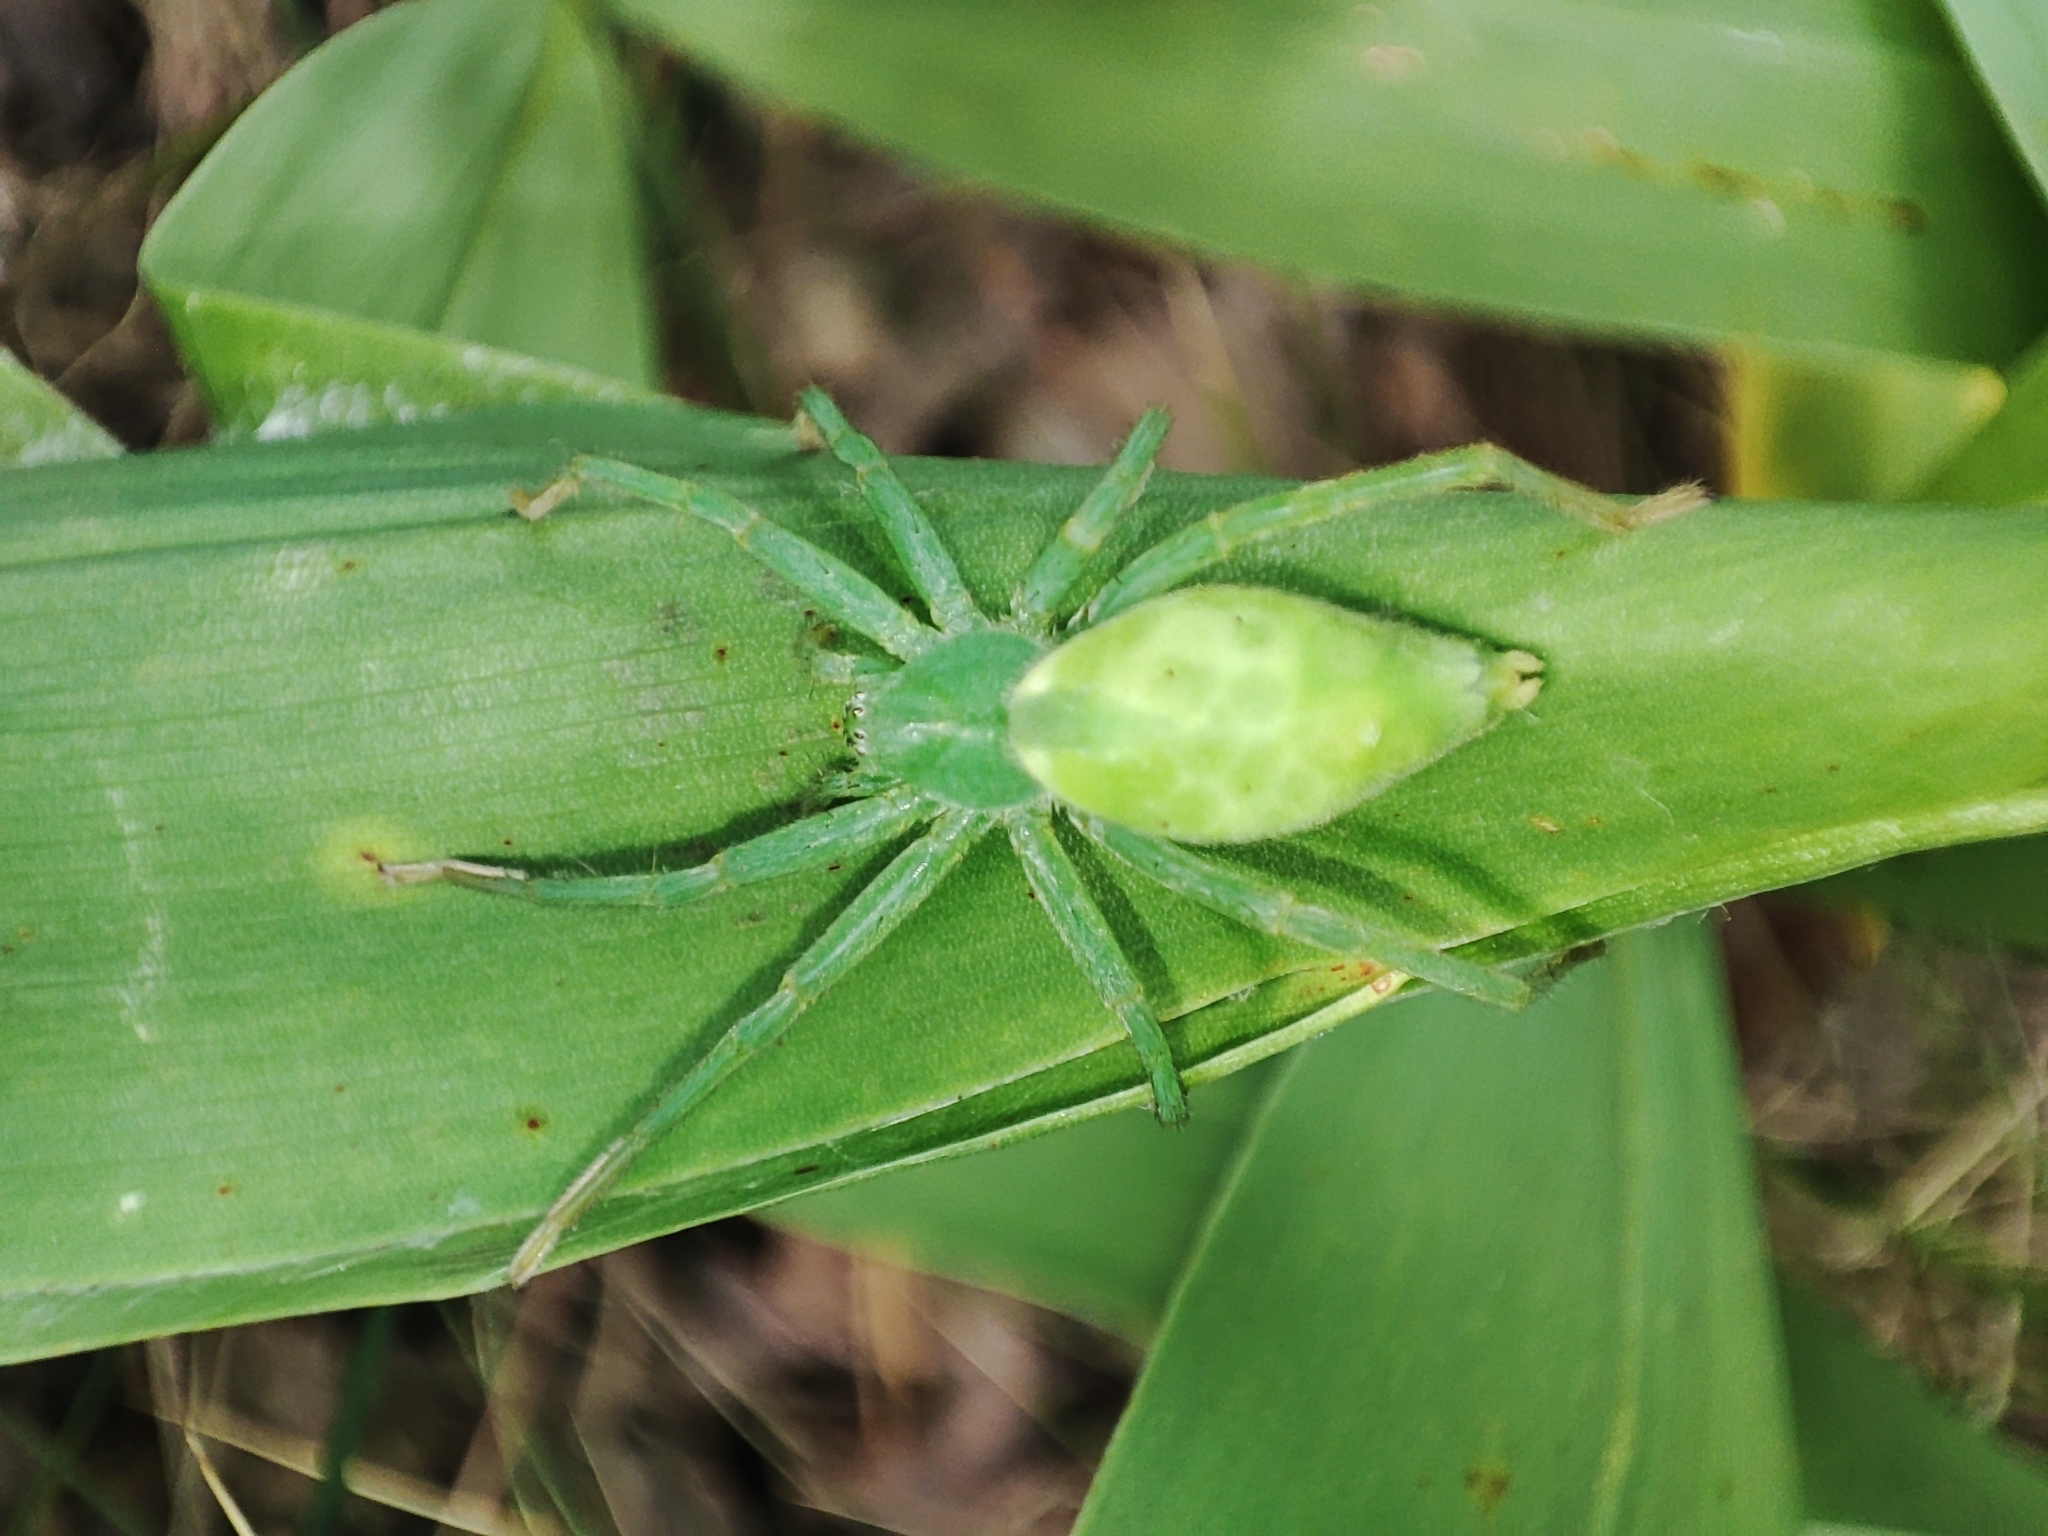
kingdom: Animalia
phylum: Arthropoda
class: Arachnida
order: Araneae
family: Sparassidae
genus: Micrommata
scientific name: Micrommata virescens
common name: Green spider
